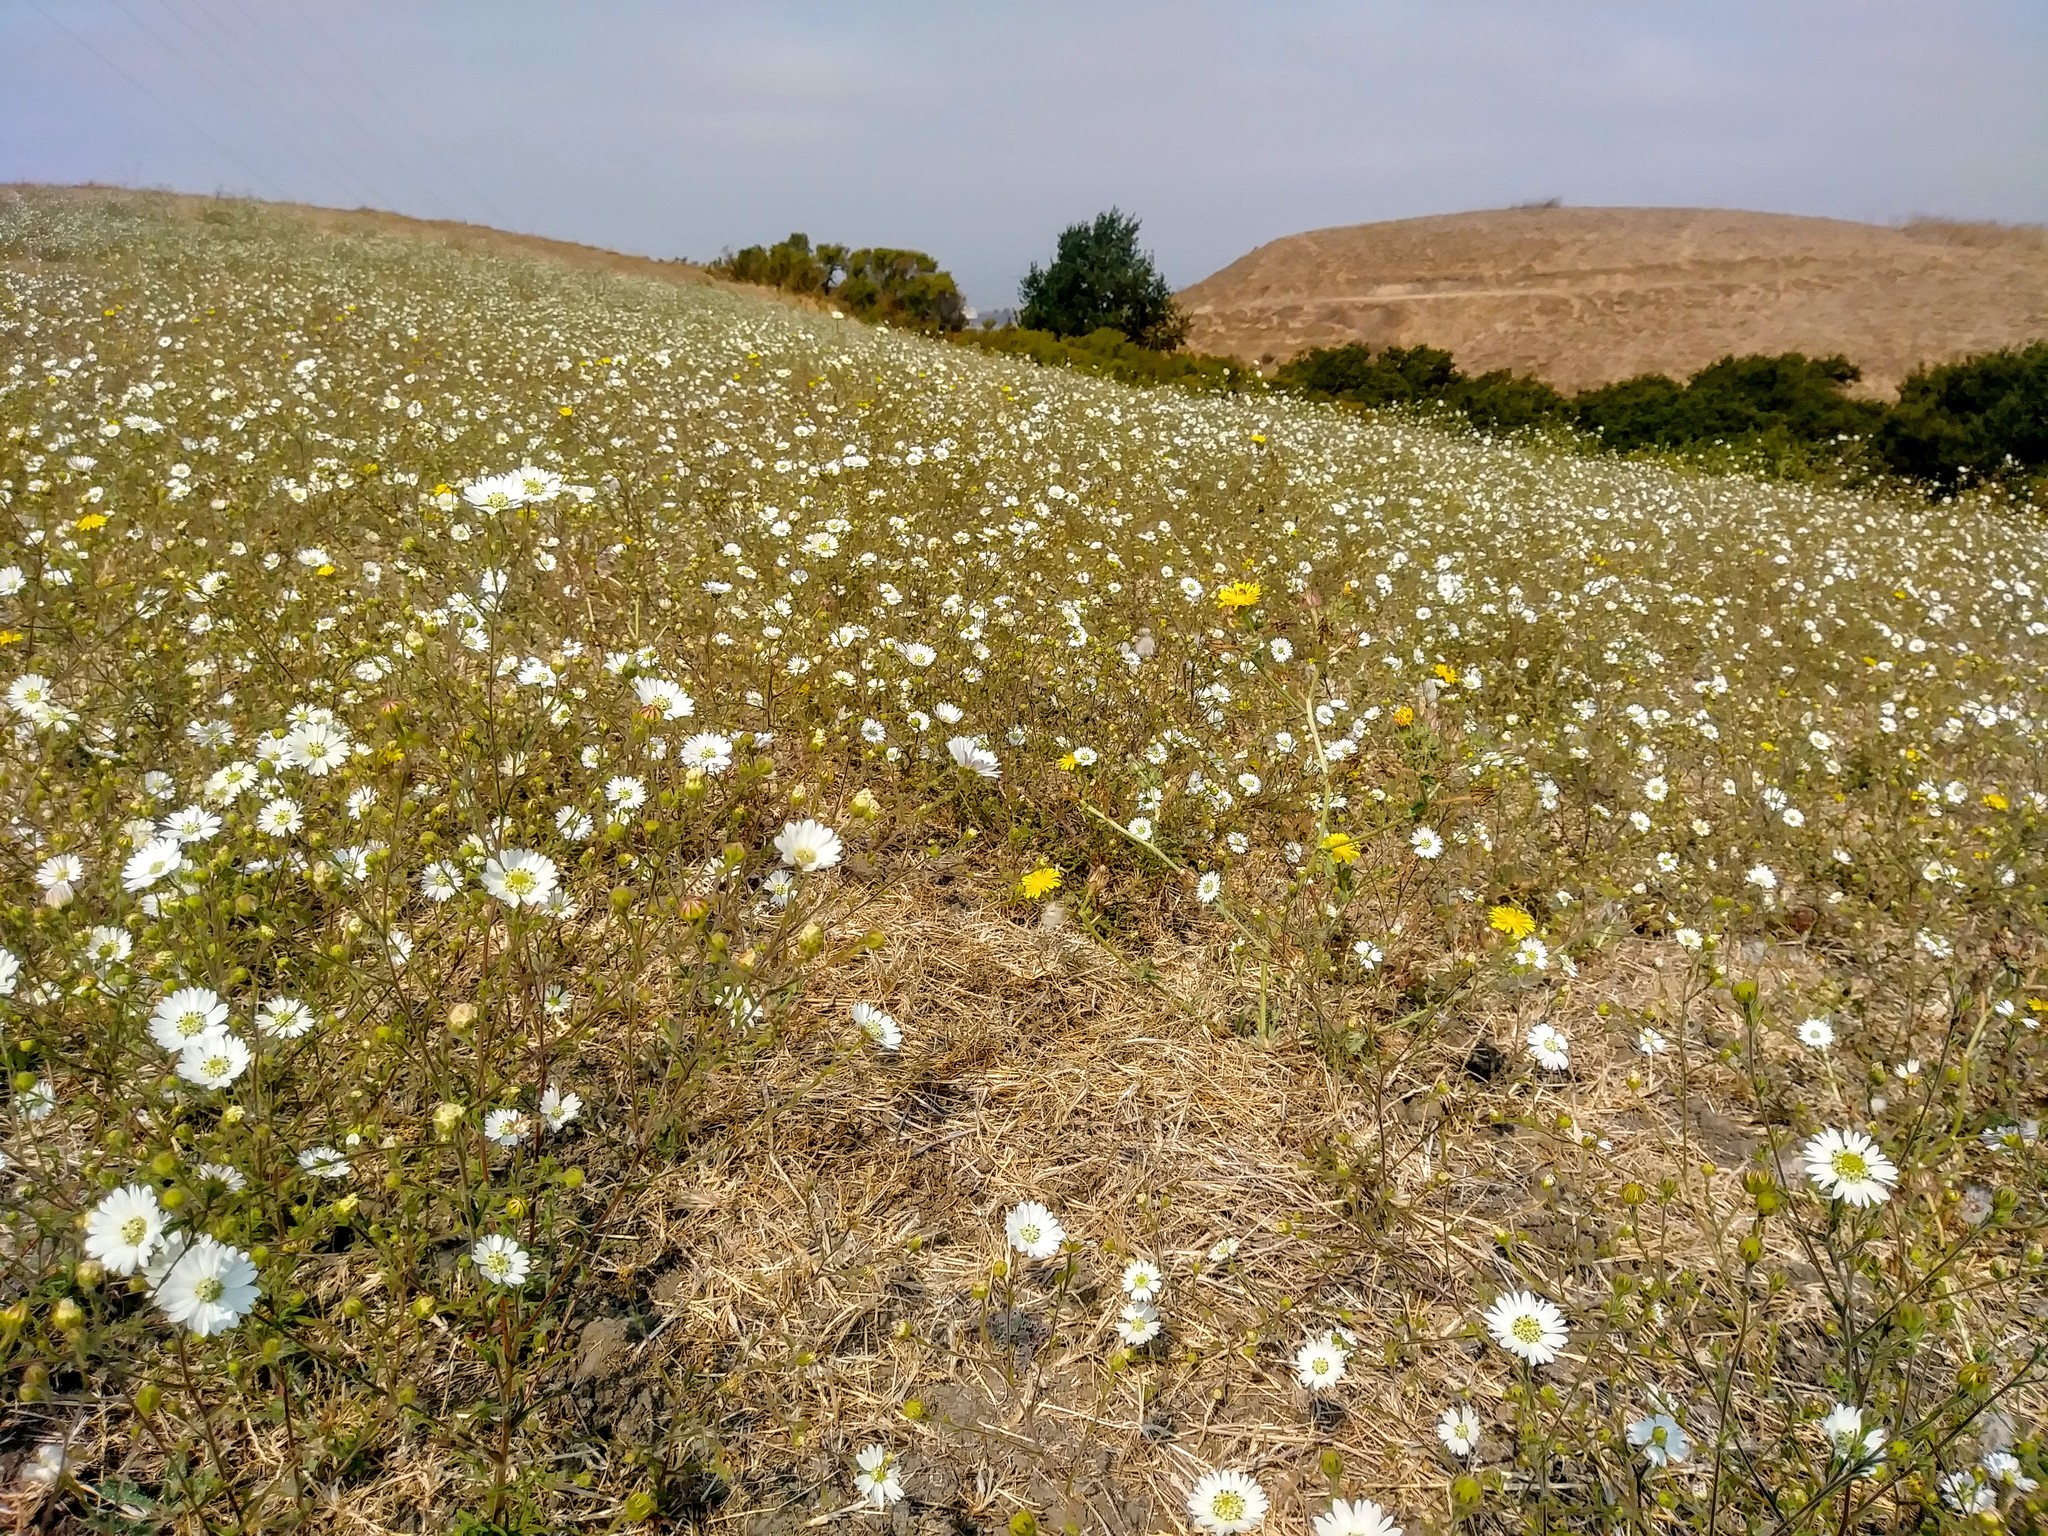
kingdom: Plantae
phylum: Tracheophyta
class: Magnoliopsida
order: Asterales
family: Asteraceae
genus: Hemizonia
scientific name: Hemizonia congesta
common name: Hayfield tarweed
